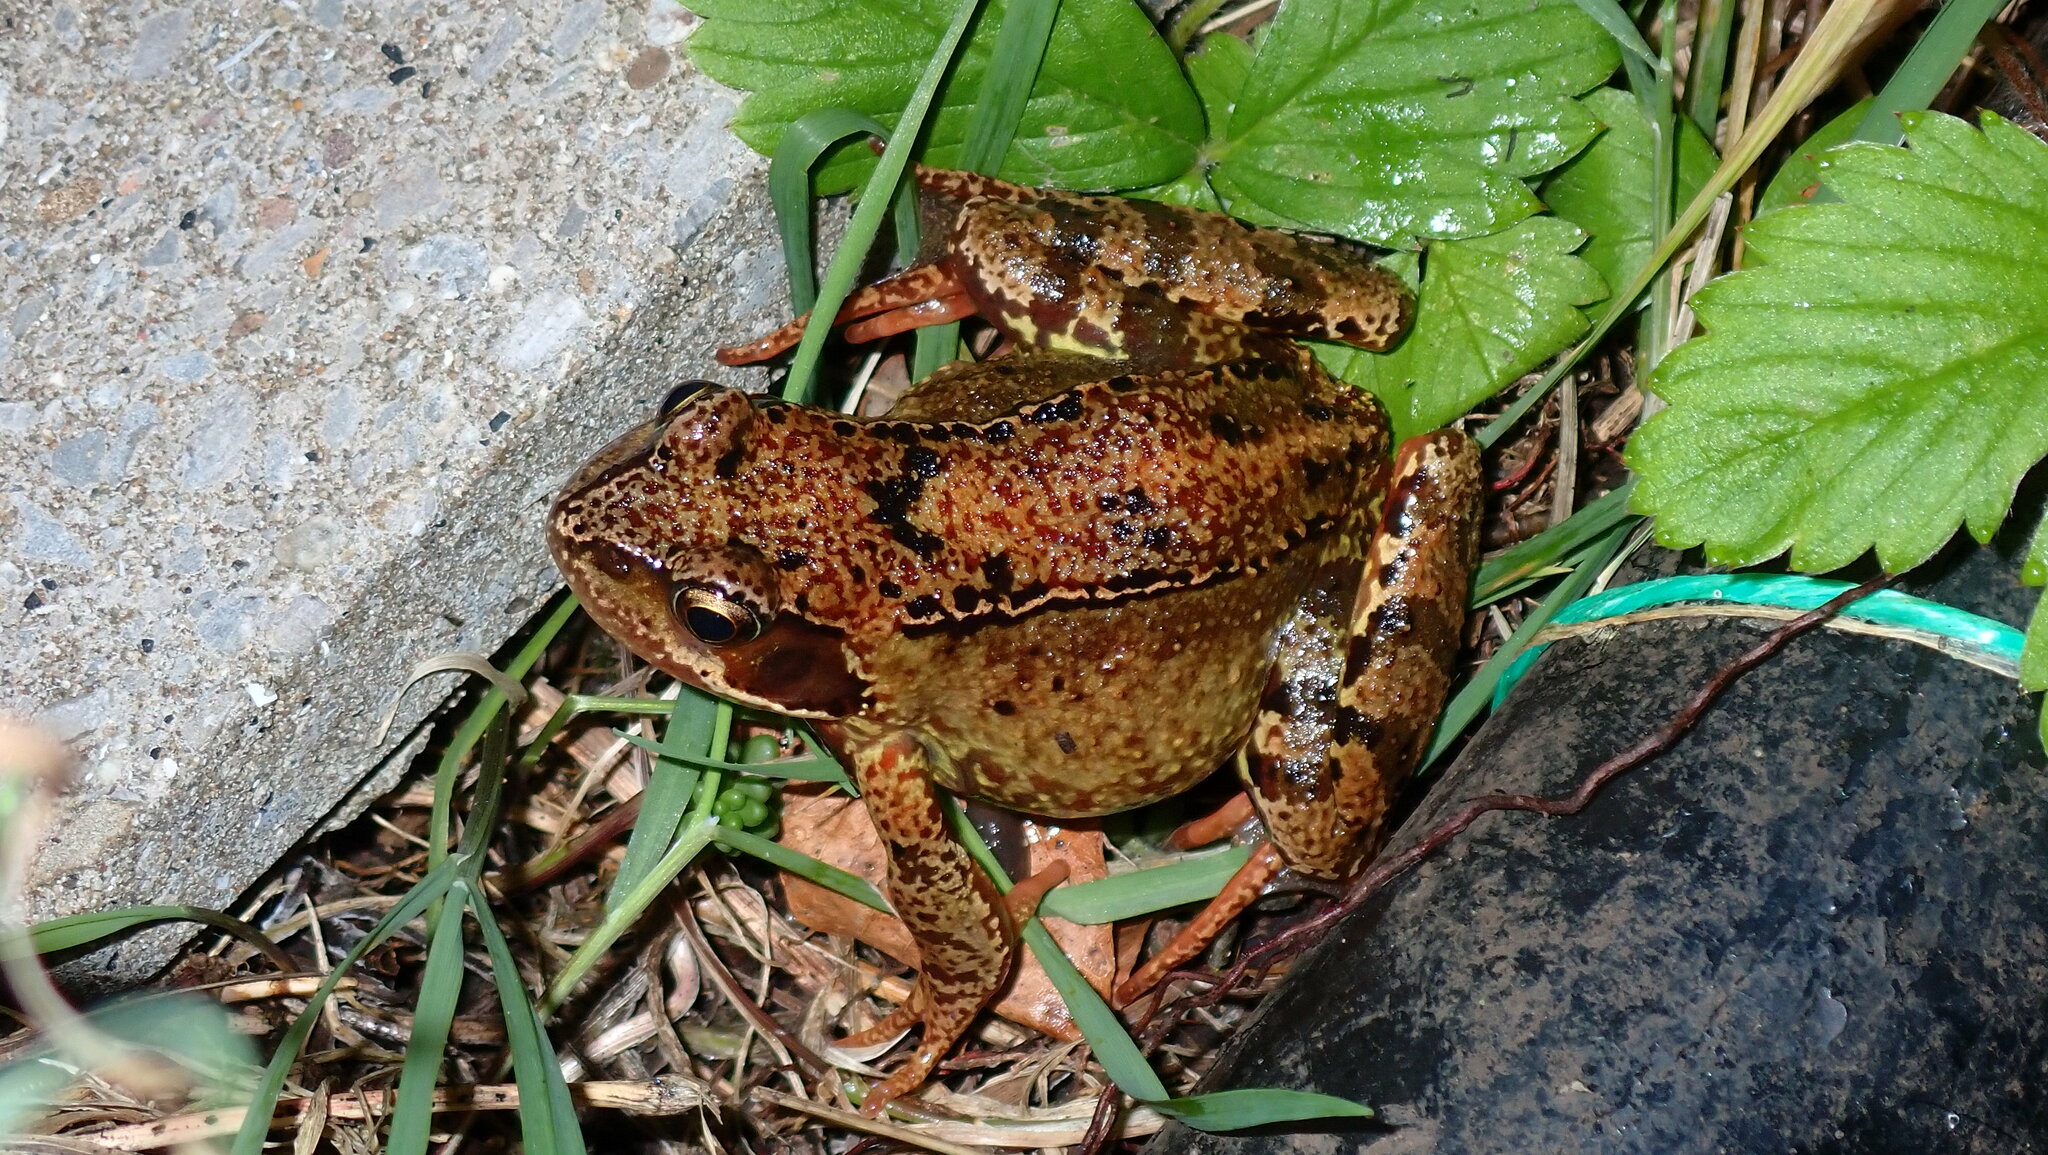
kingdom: Animalia
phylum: Chordata
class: Amphibia
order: Anura
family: Ranidae
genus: Rana
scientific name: Rana temporaria
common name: Common frog
